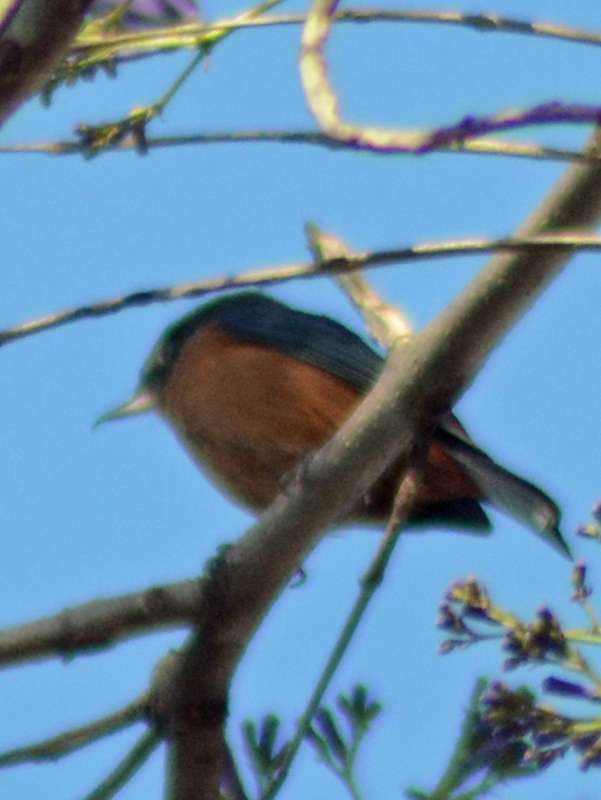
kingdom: Animalia
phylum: Chordata
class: Aves
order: Passeriformes
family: Thraupidae
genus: Diglossa
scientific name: Diglossa baritula
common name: Cinnamon-bellied flowerpiercer
